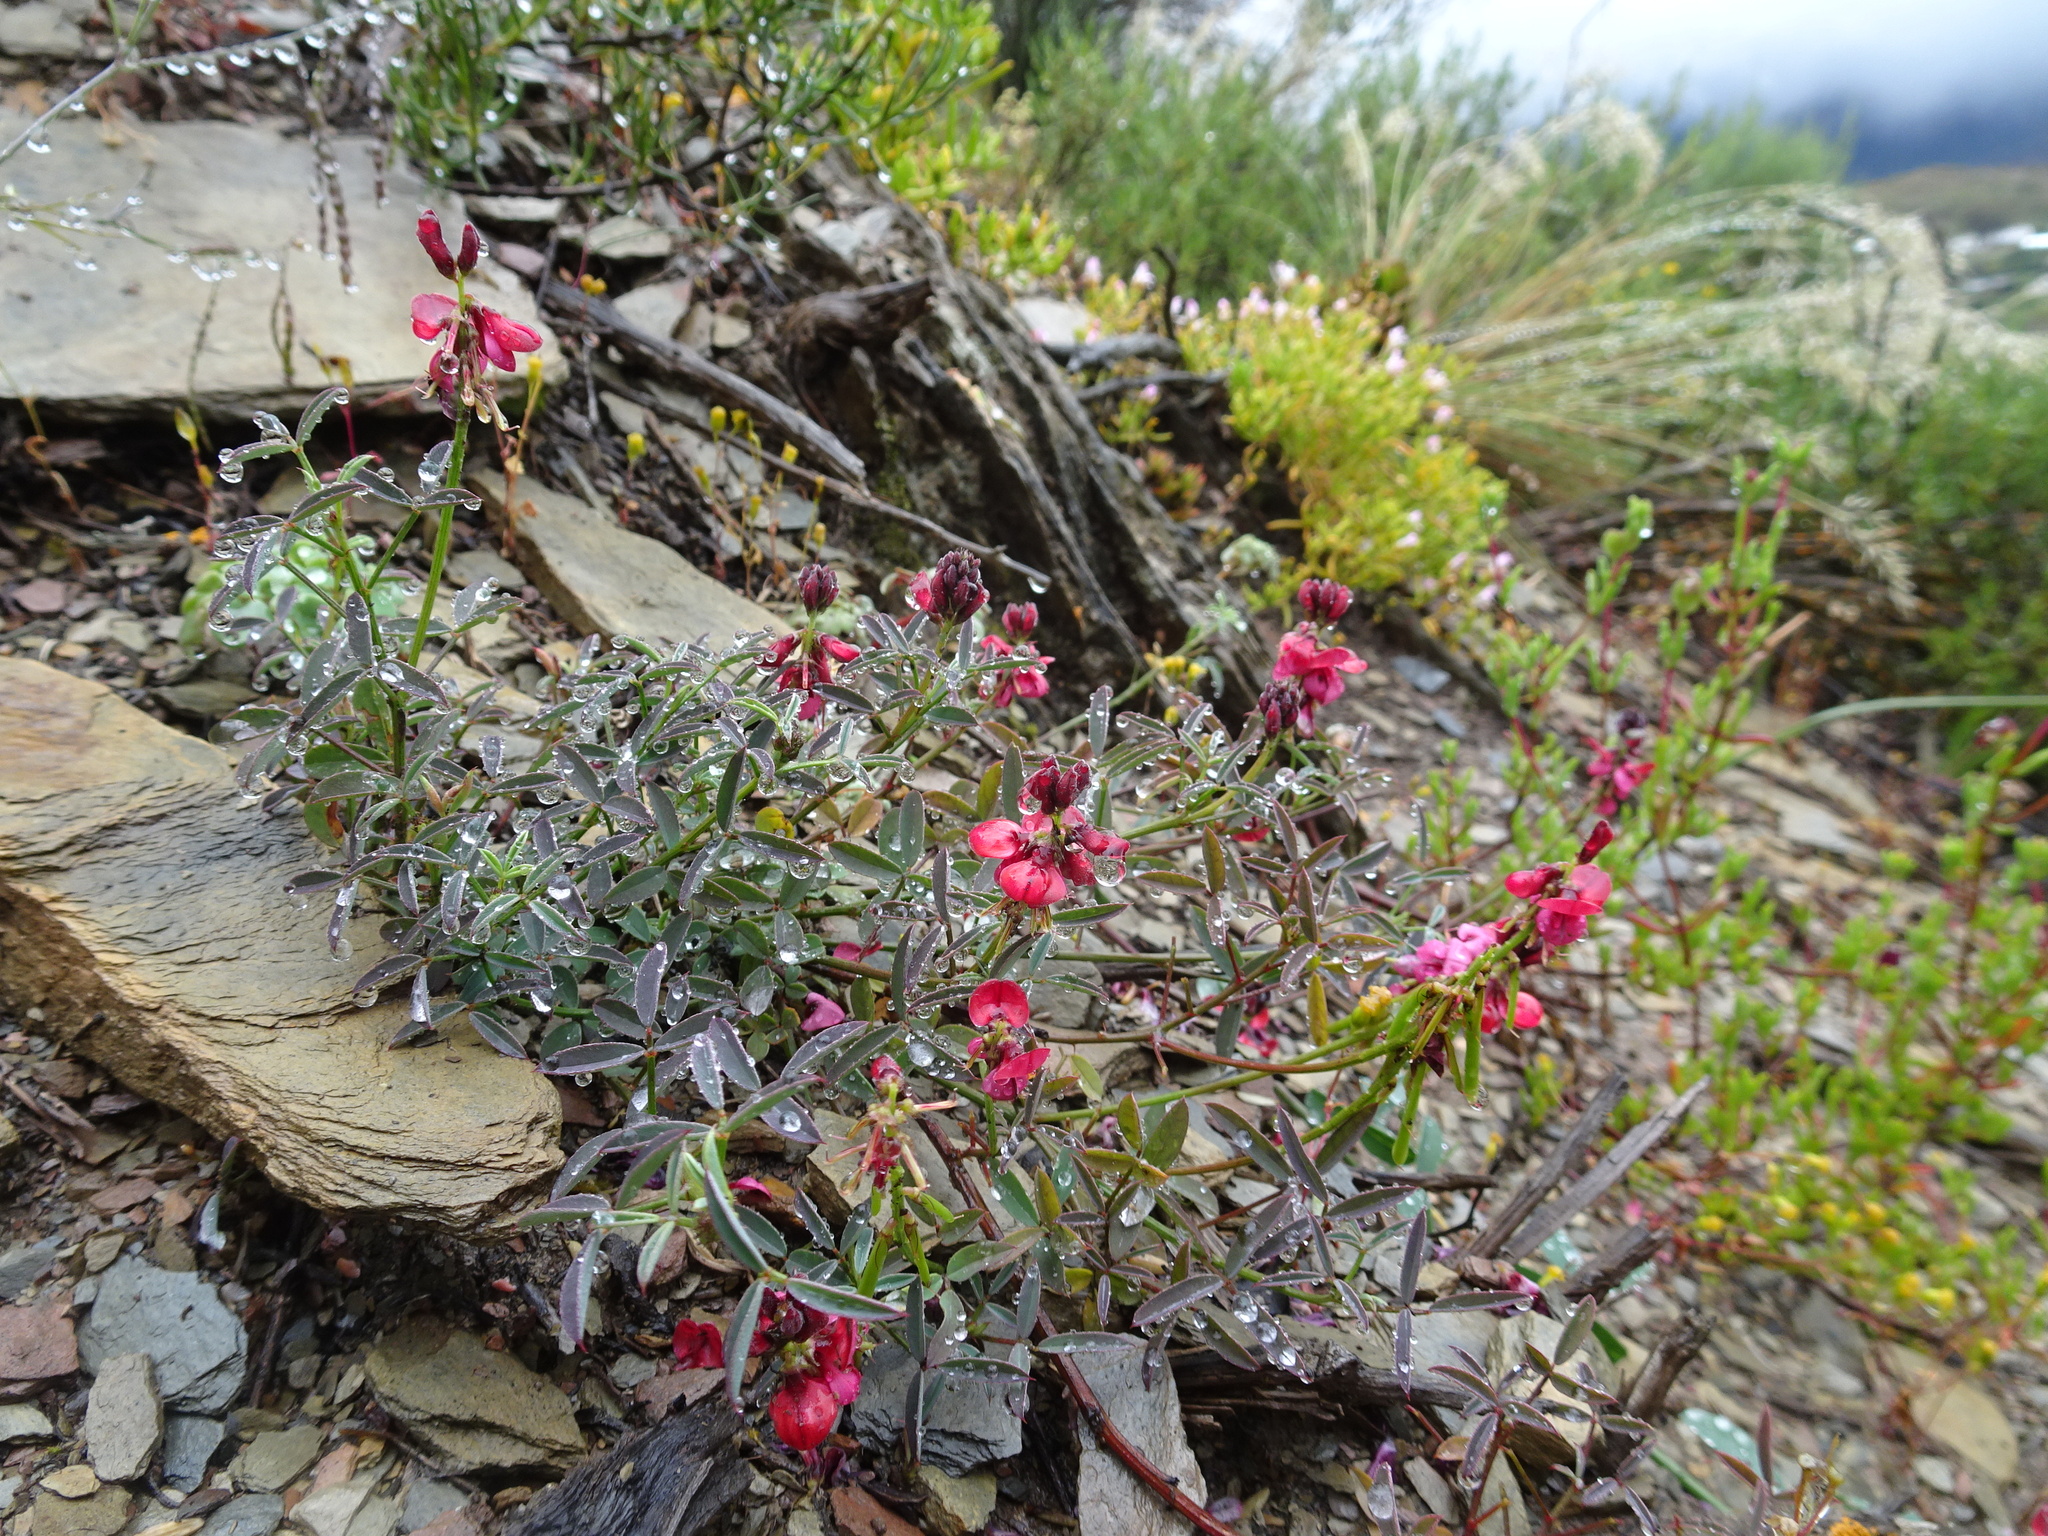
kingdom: Plantae
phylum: Tracheophyta
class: Magnoliopsida
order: Fabales
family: Fabaceae
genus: Indigofera
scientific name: Indigofera heterophylla
